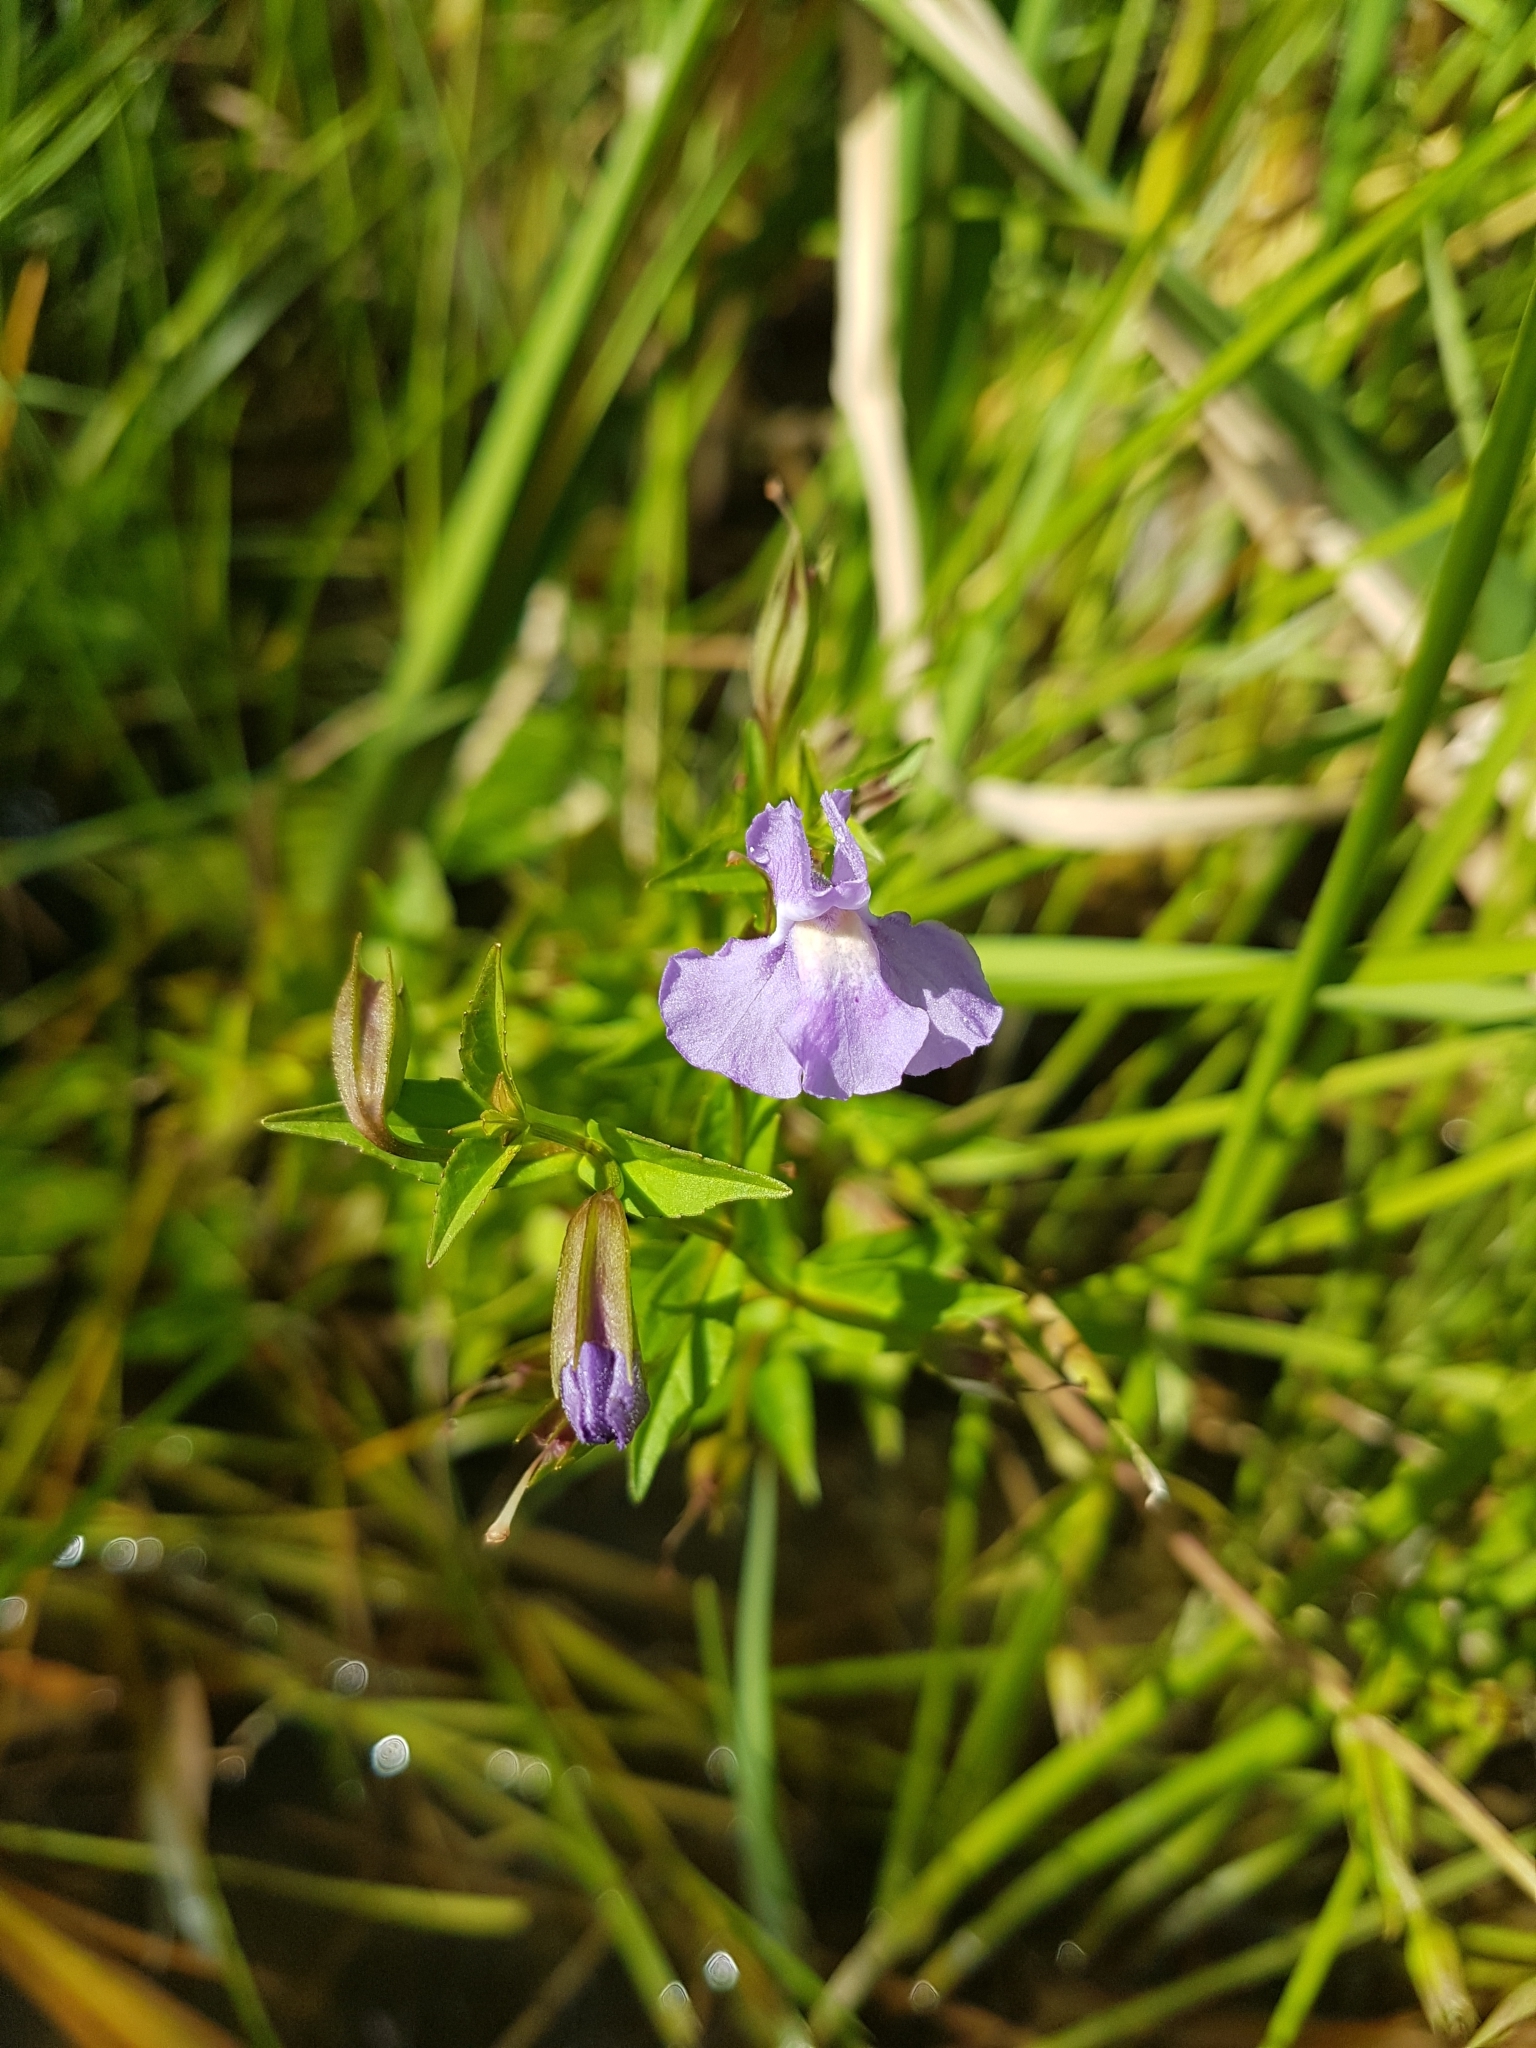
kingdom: Plantae
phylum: Tracheophyta
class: Magnoliopsida
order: Lamiales
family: Phrymaceae
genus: Mimulus
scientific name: Mimulus ringens
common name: Allegheny monkeyflower
